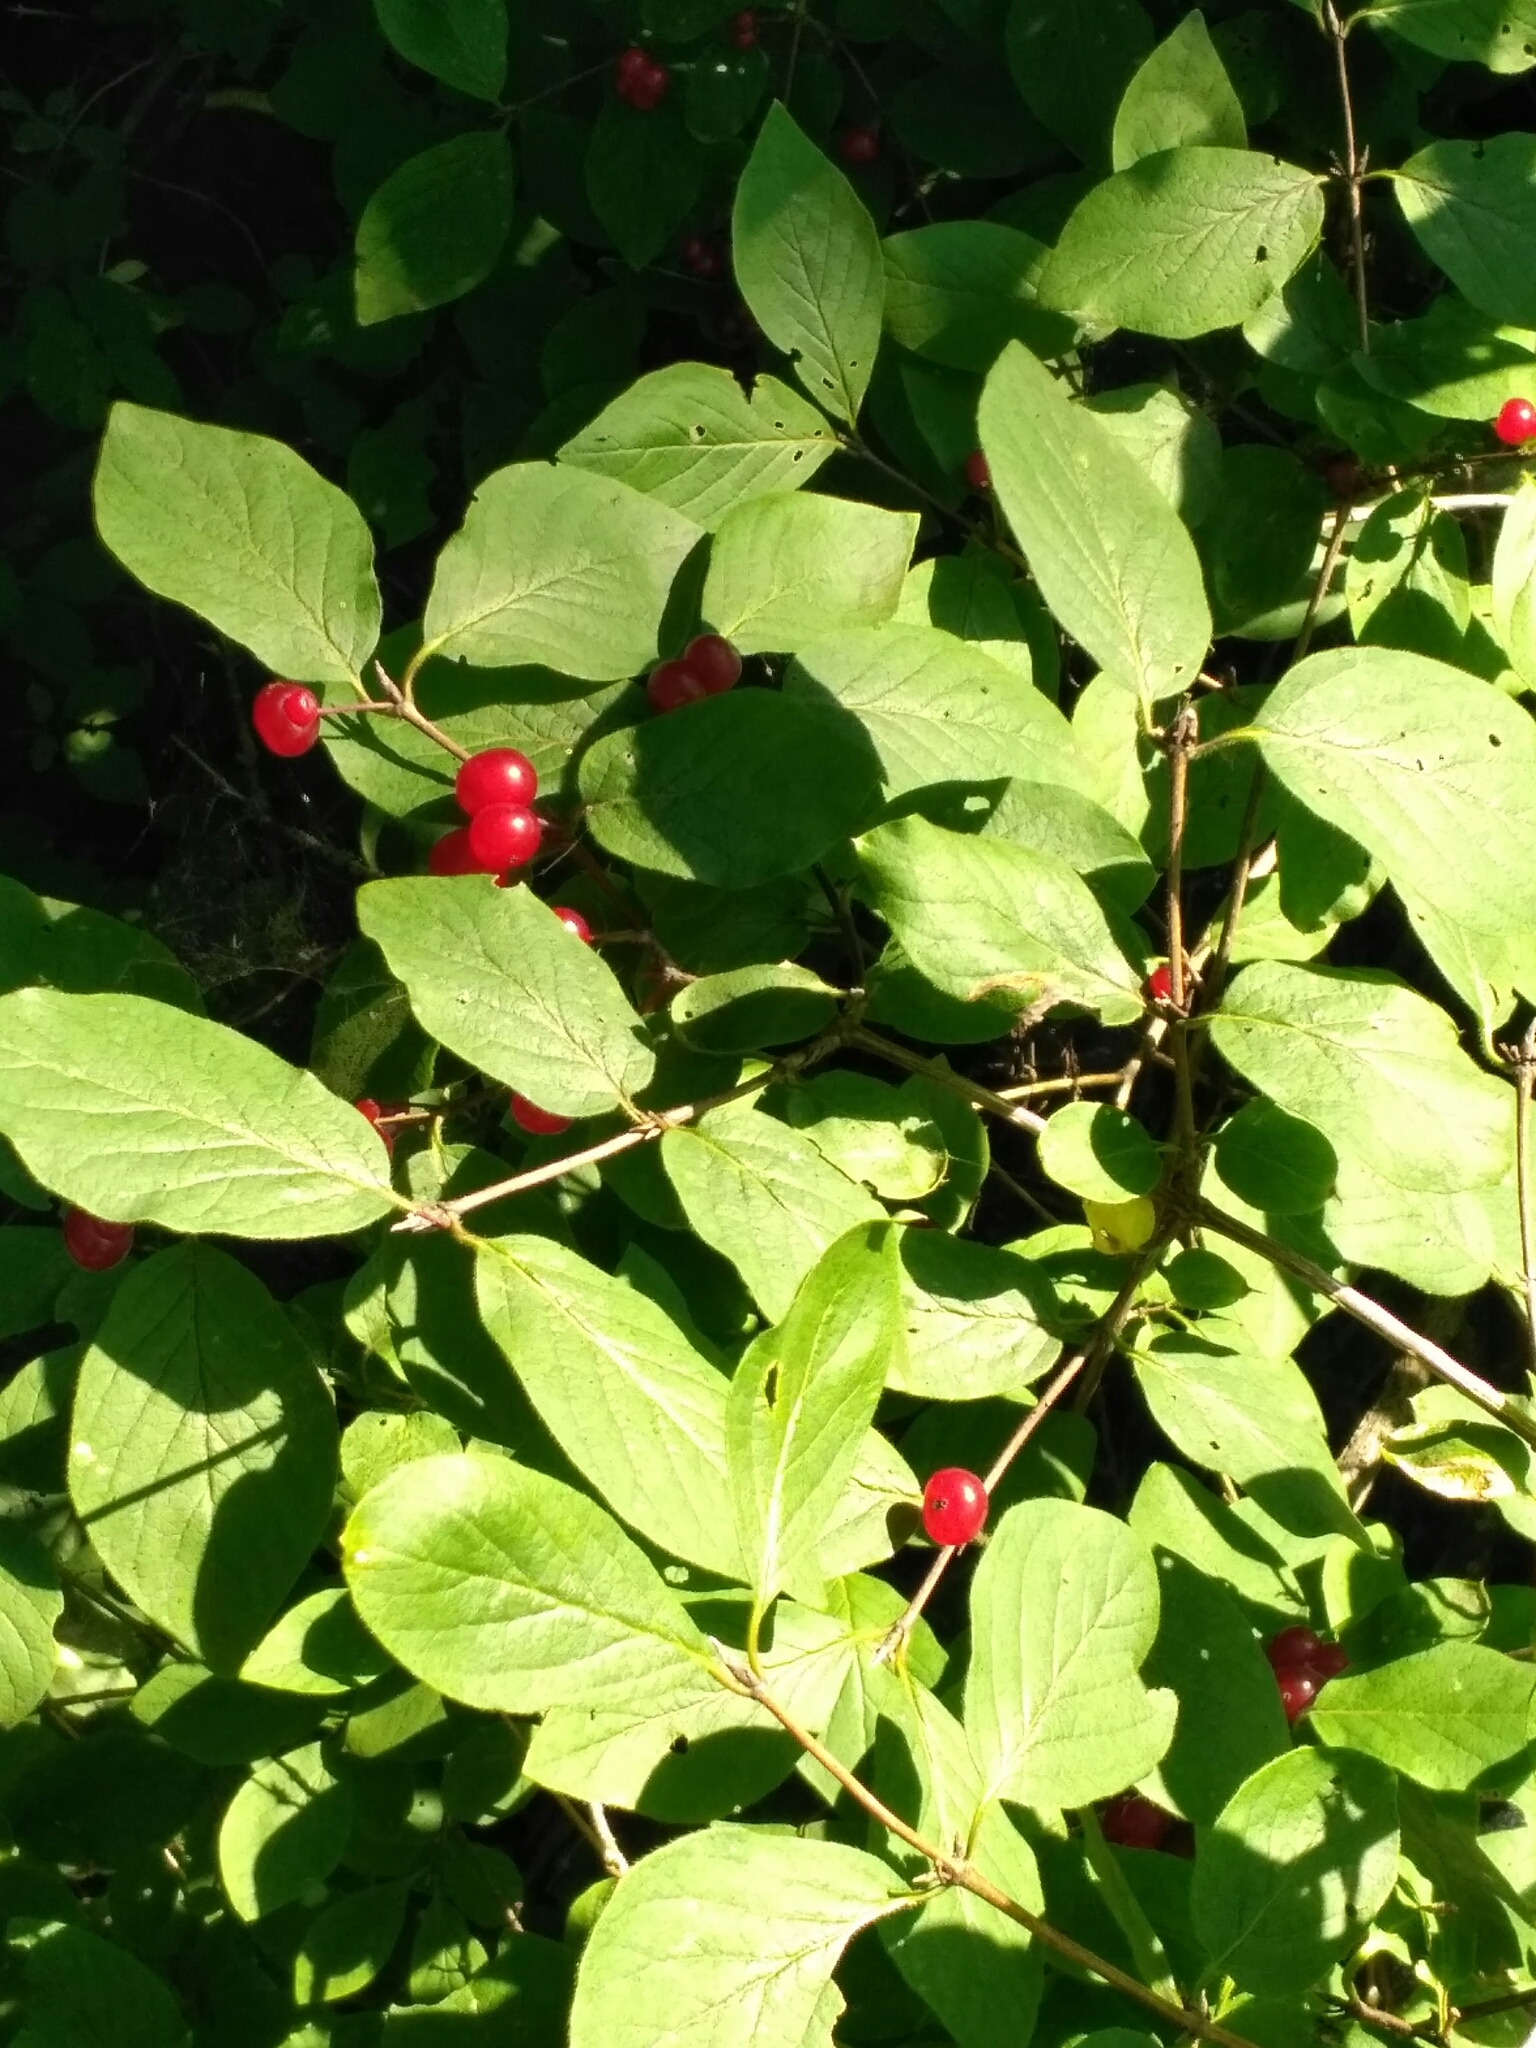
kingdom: Plantae
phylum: Tracheophyta
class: Magnoliopsida
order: Dipsacales
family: Caprifoliaceae
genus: Lonicera
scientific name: Lonicera xylosteum
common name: Fly honeysuckle
